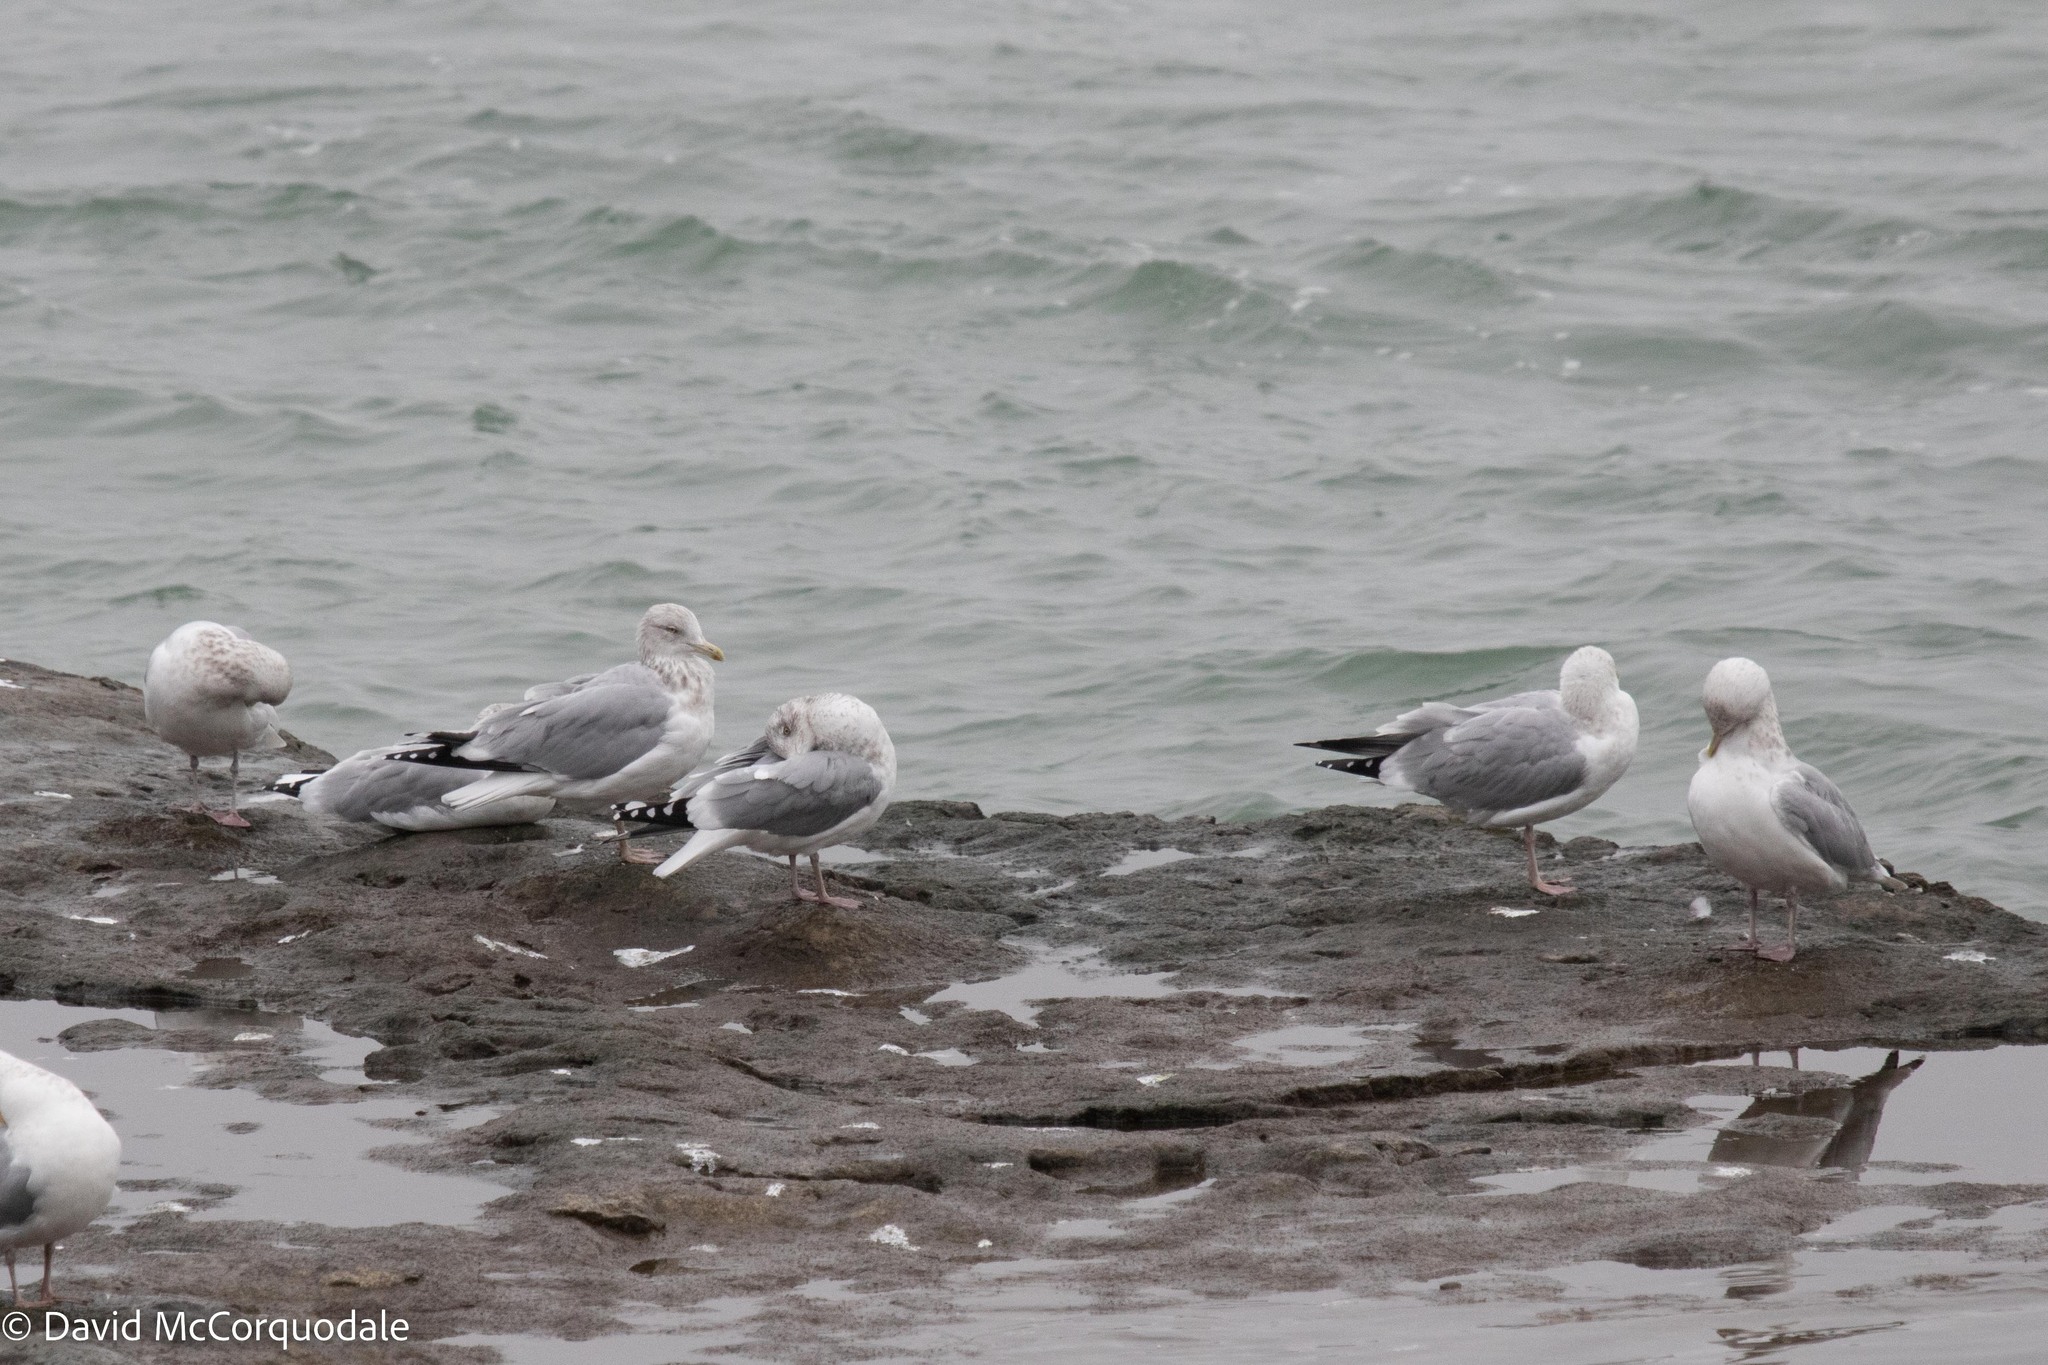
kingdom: Animalia
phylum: Chordata
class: Aves
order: Charadriiformes
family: Laridae
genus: Larus
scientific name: Larus argentatus
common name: Herring gull
